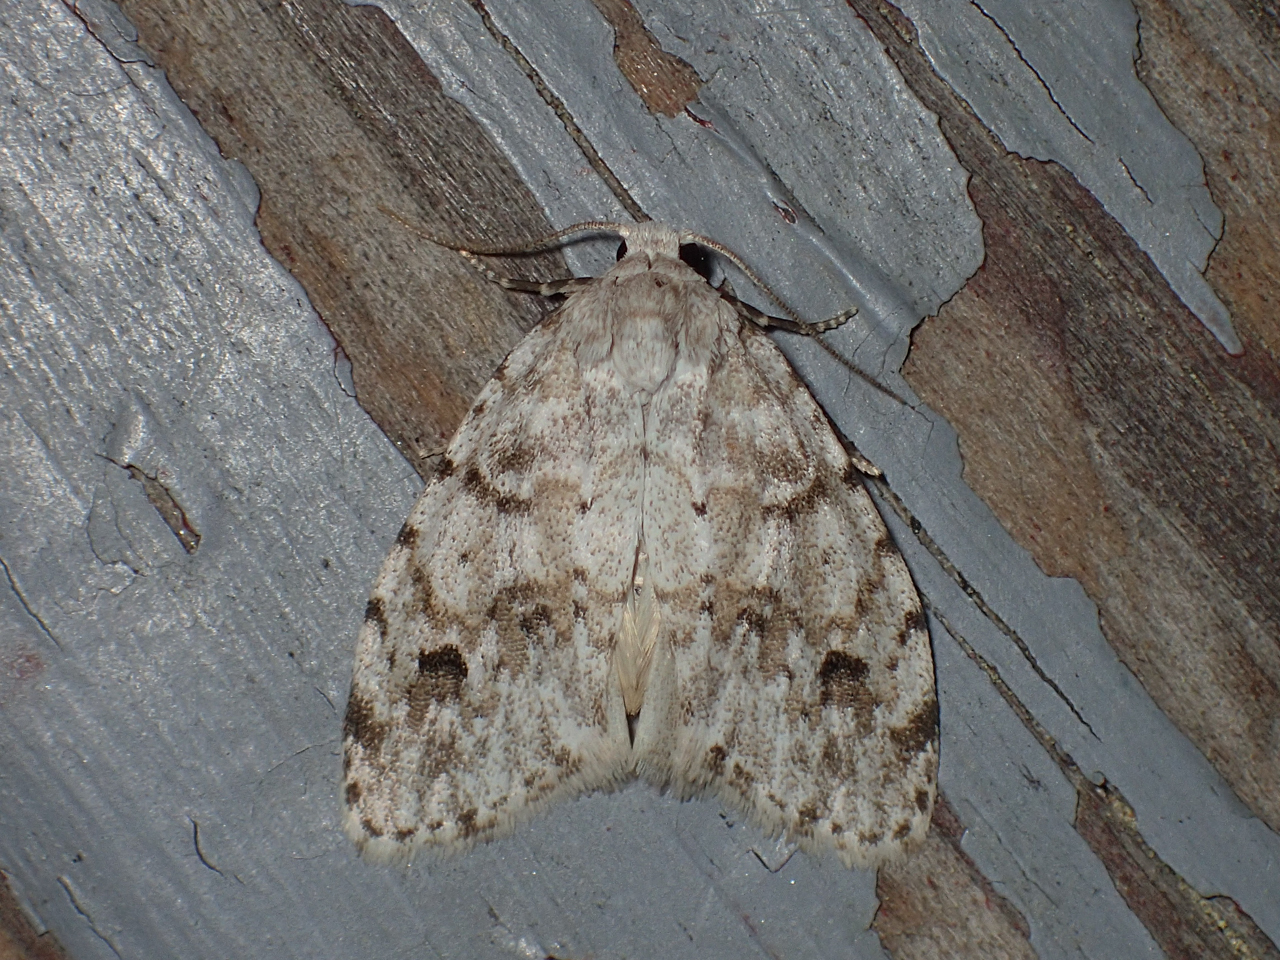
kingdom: Animalia
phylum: Arthropoda
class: Insecta
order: Lepidoptera
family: Erebidae
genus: Clemensia
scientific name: Clemensia albata
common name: Little white lichen moth
